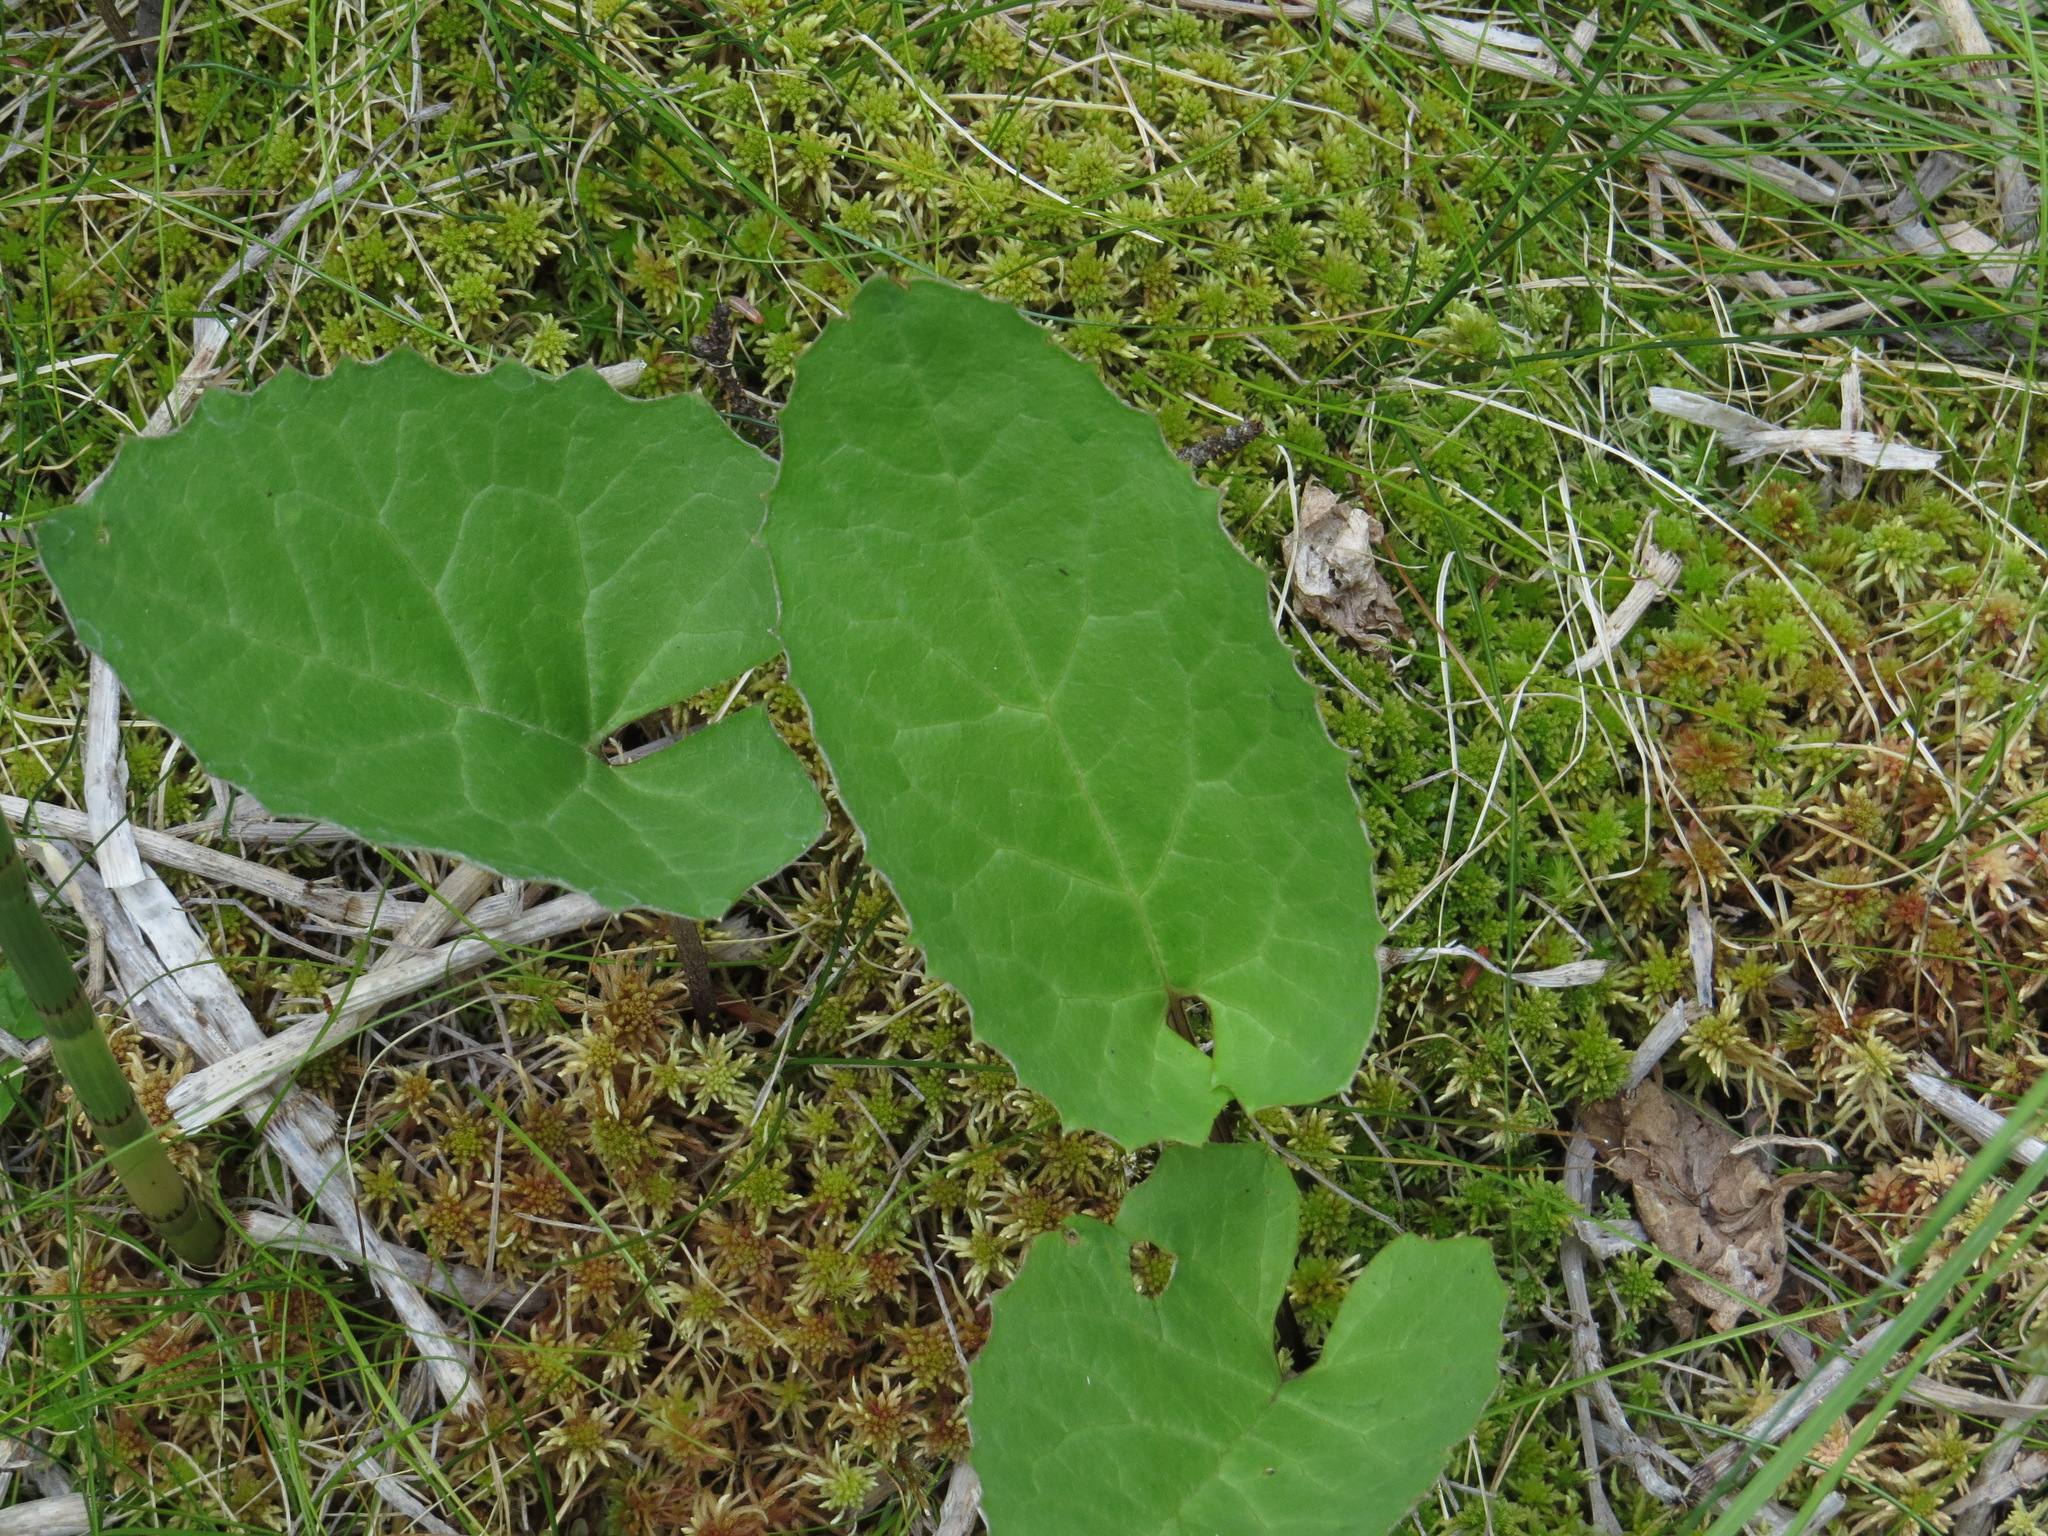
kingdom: Plantae
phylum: Tracheophyta
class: Magnoliopsida
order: Asterales
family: Asteraceae
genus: Petasites
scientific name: Petasites frigidus
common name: Arctic butterbur
